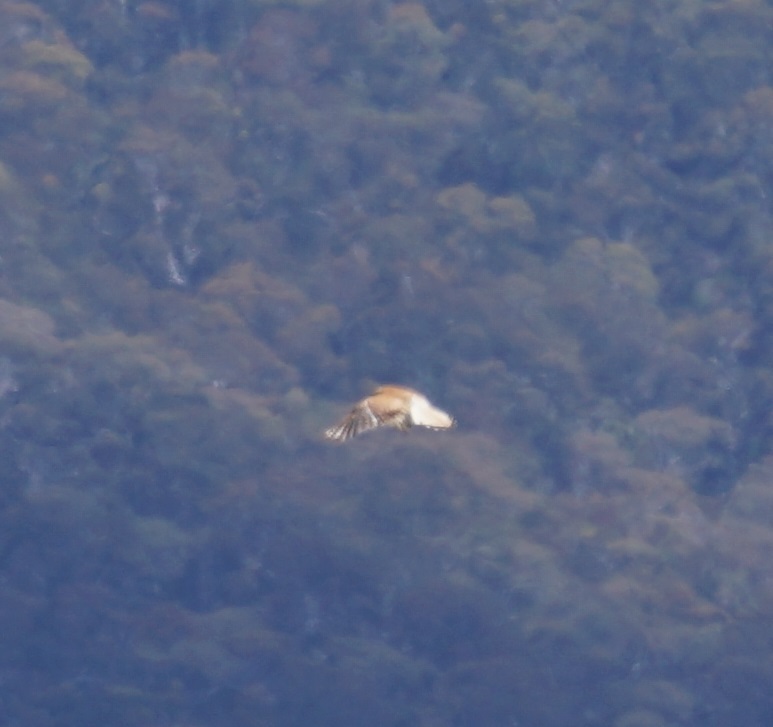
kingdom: Animalia
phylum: Chordata
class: Aves
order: Falconiformes
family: Falconidae
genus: Falco
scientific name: Falco cenchroides
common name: Nankeen kestrel
